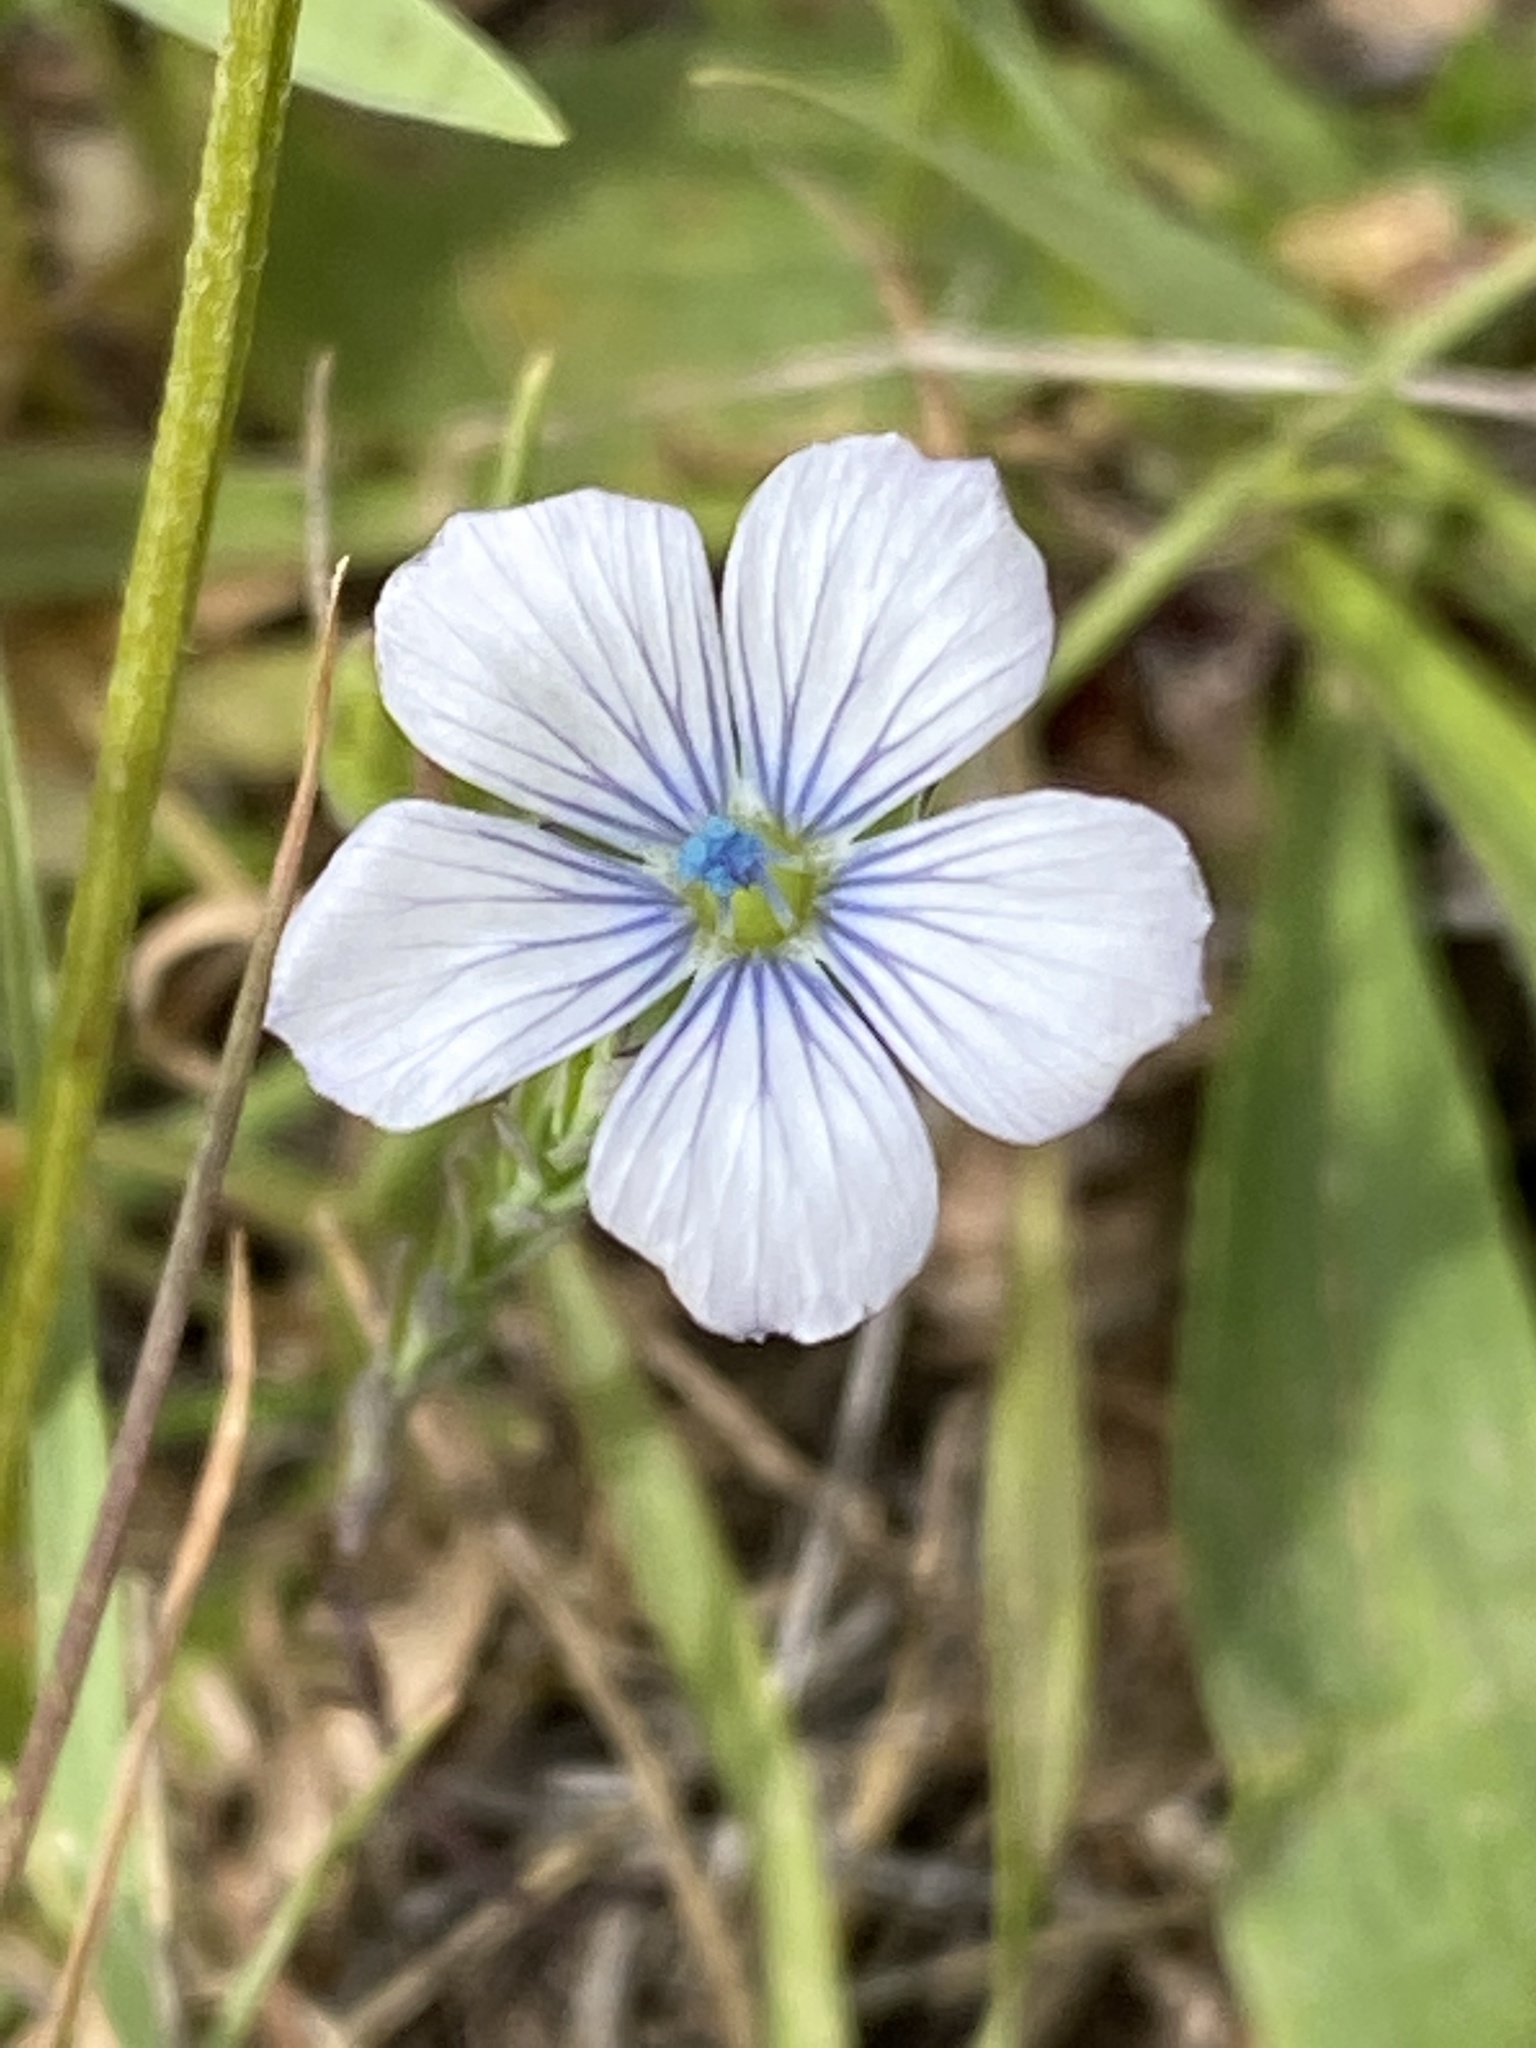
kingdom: Plantae
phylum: Tracheophyta
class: Magnoliopsida
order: Malpighiales
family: Linaceae
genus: Linum
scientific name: Linum bienne
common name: Pale flax
